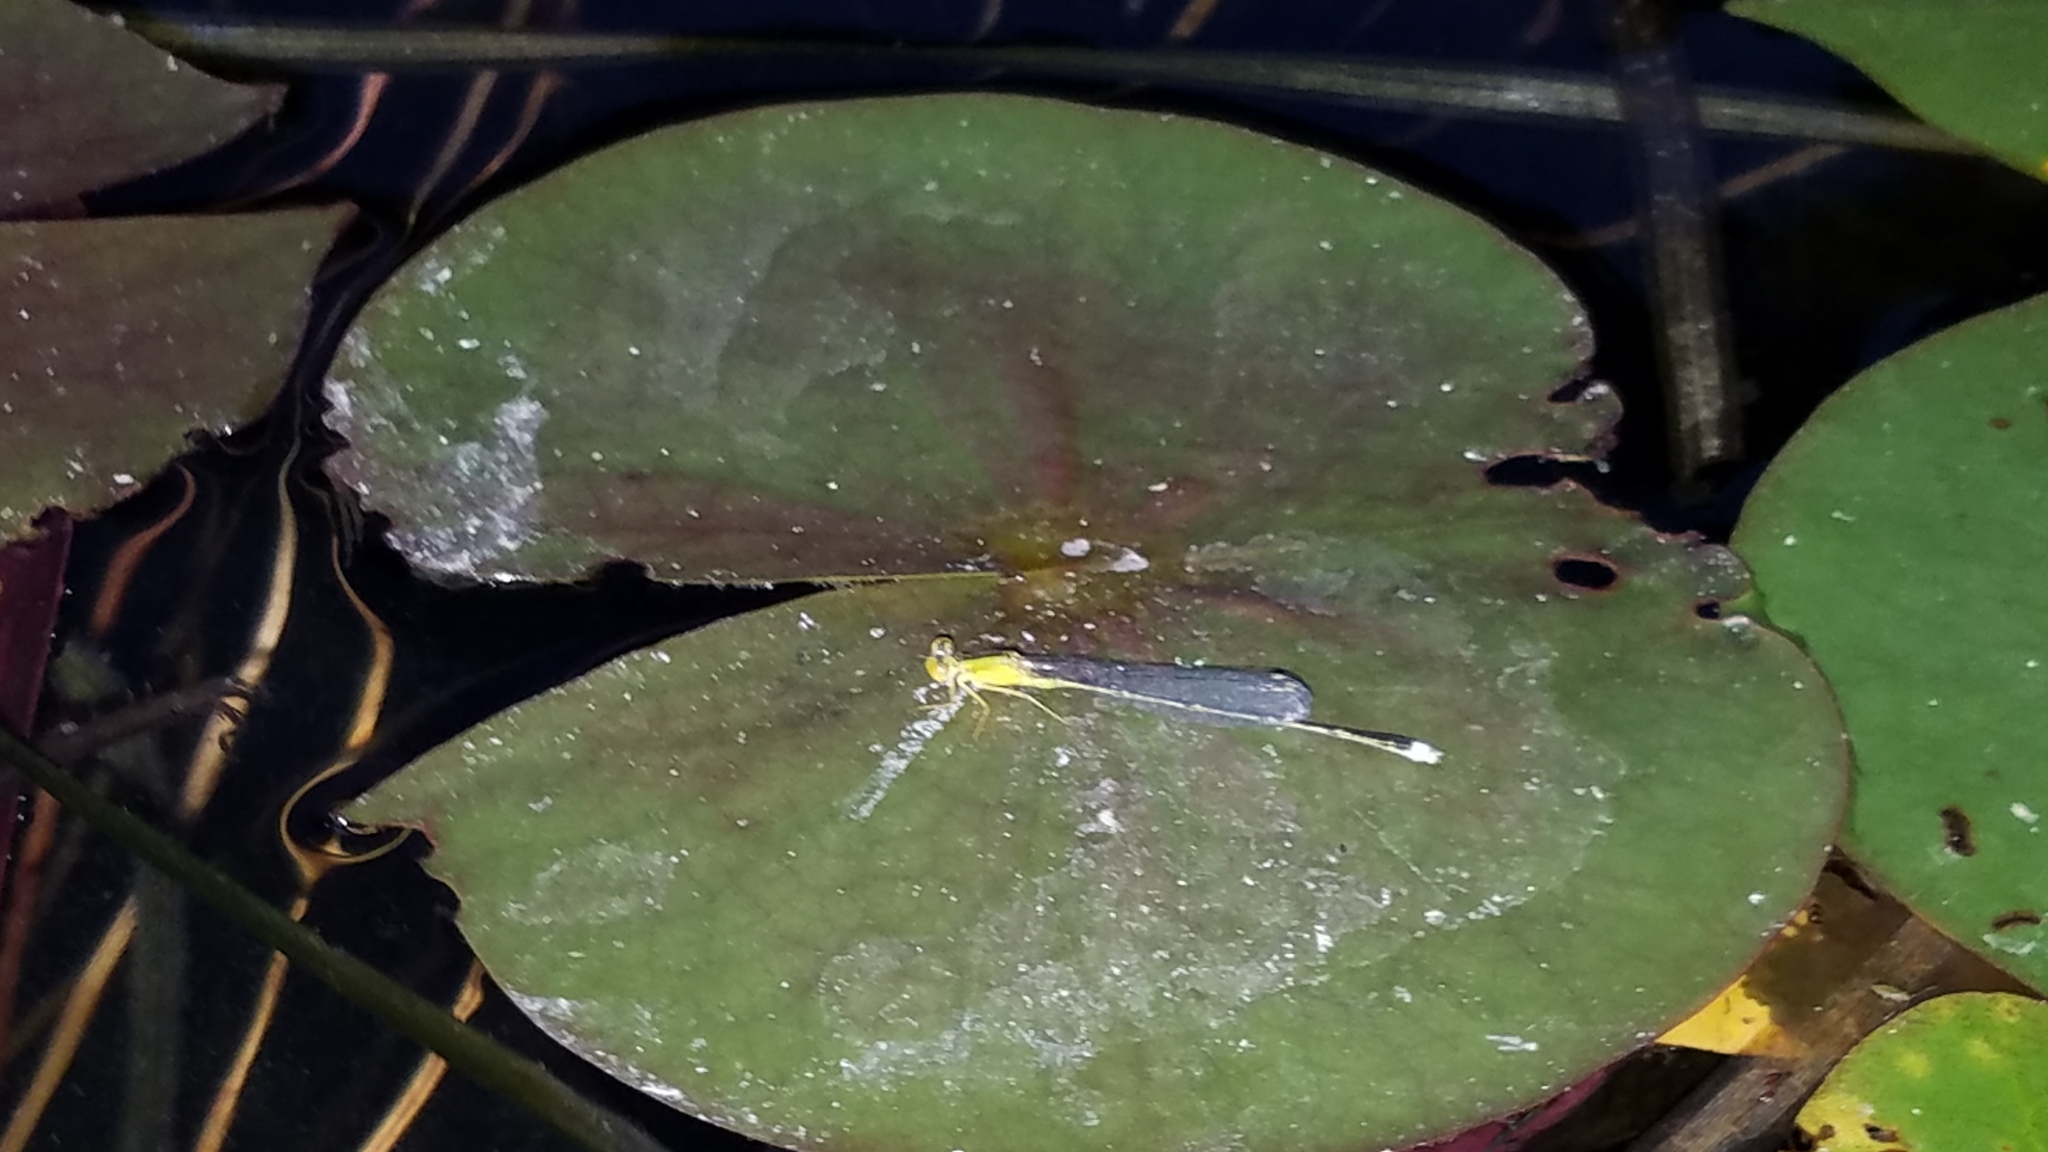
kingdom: Animalia
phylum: Arthropoda
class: Insecta
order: Odonata
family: Coenagrionidae
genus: Enallagma
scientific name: Enallagma vesperum
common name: Vesper bluet
